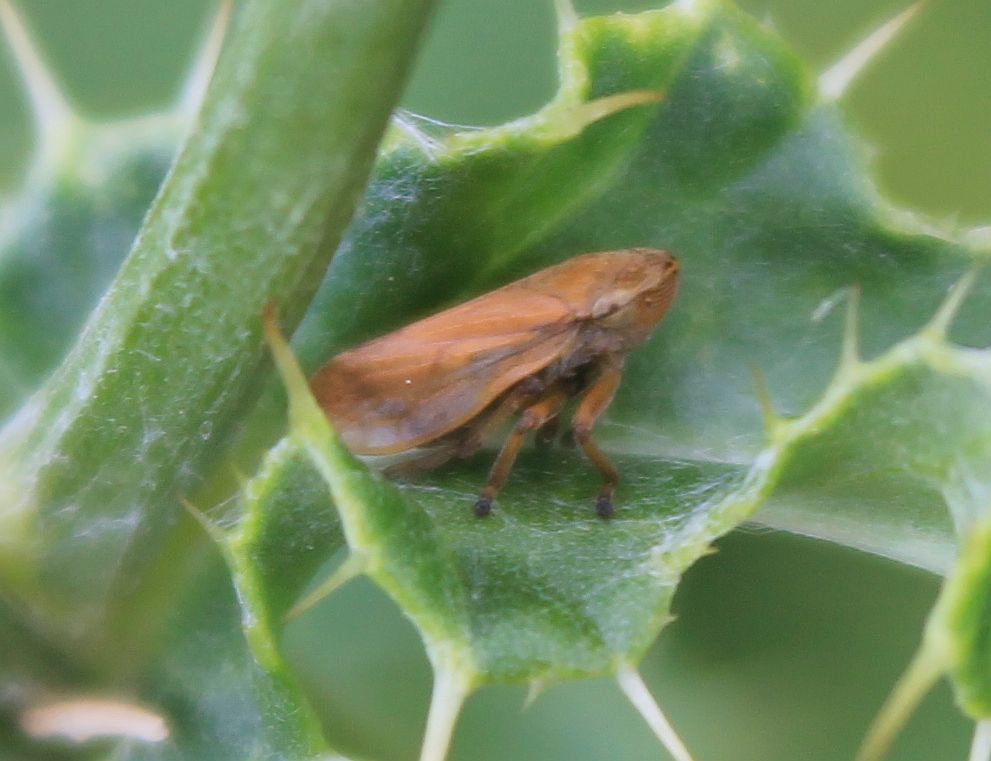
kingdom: Animalia
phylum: Arthropoda
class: Insecta
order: Hemiptera
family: Aphrophoridae
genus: Philaenus
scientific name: Philaenus spumarius
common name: Meadow spittlebug
